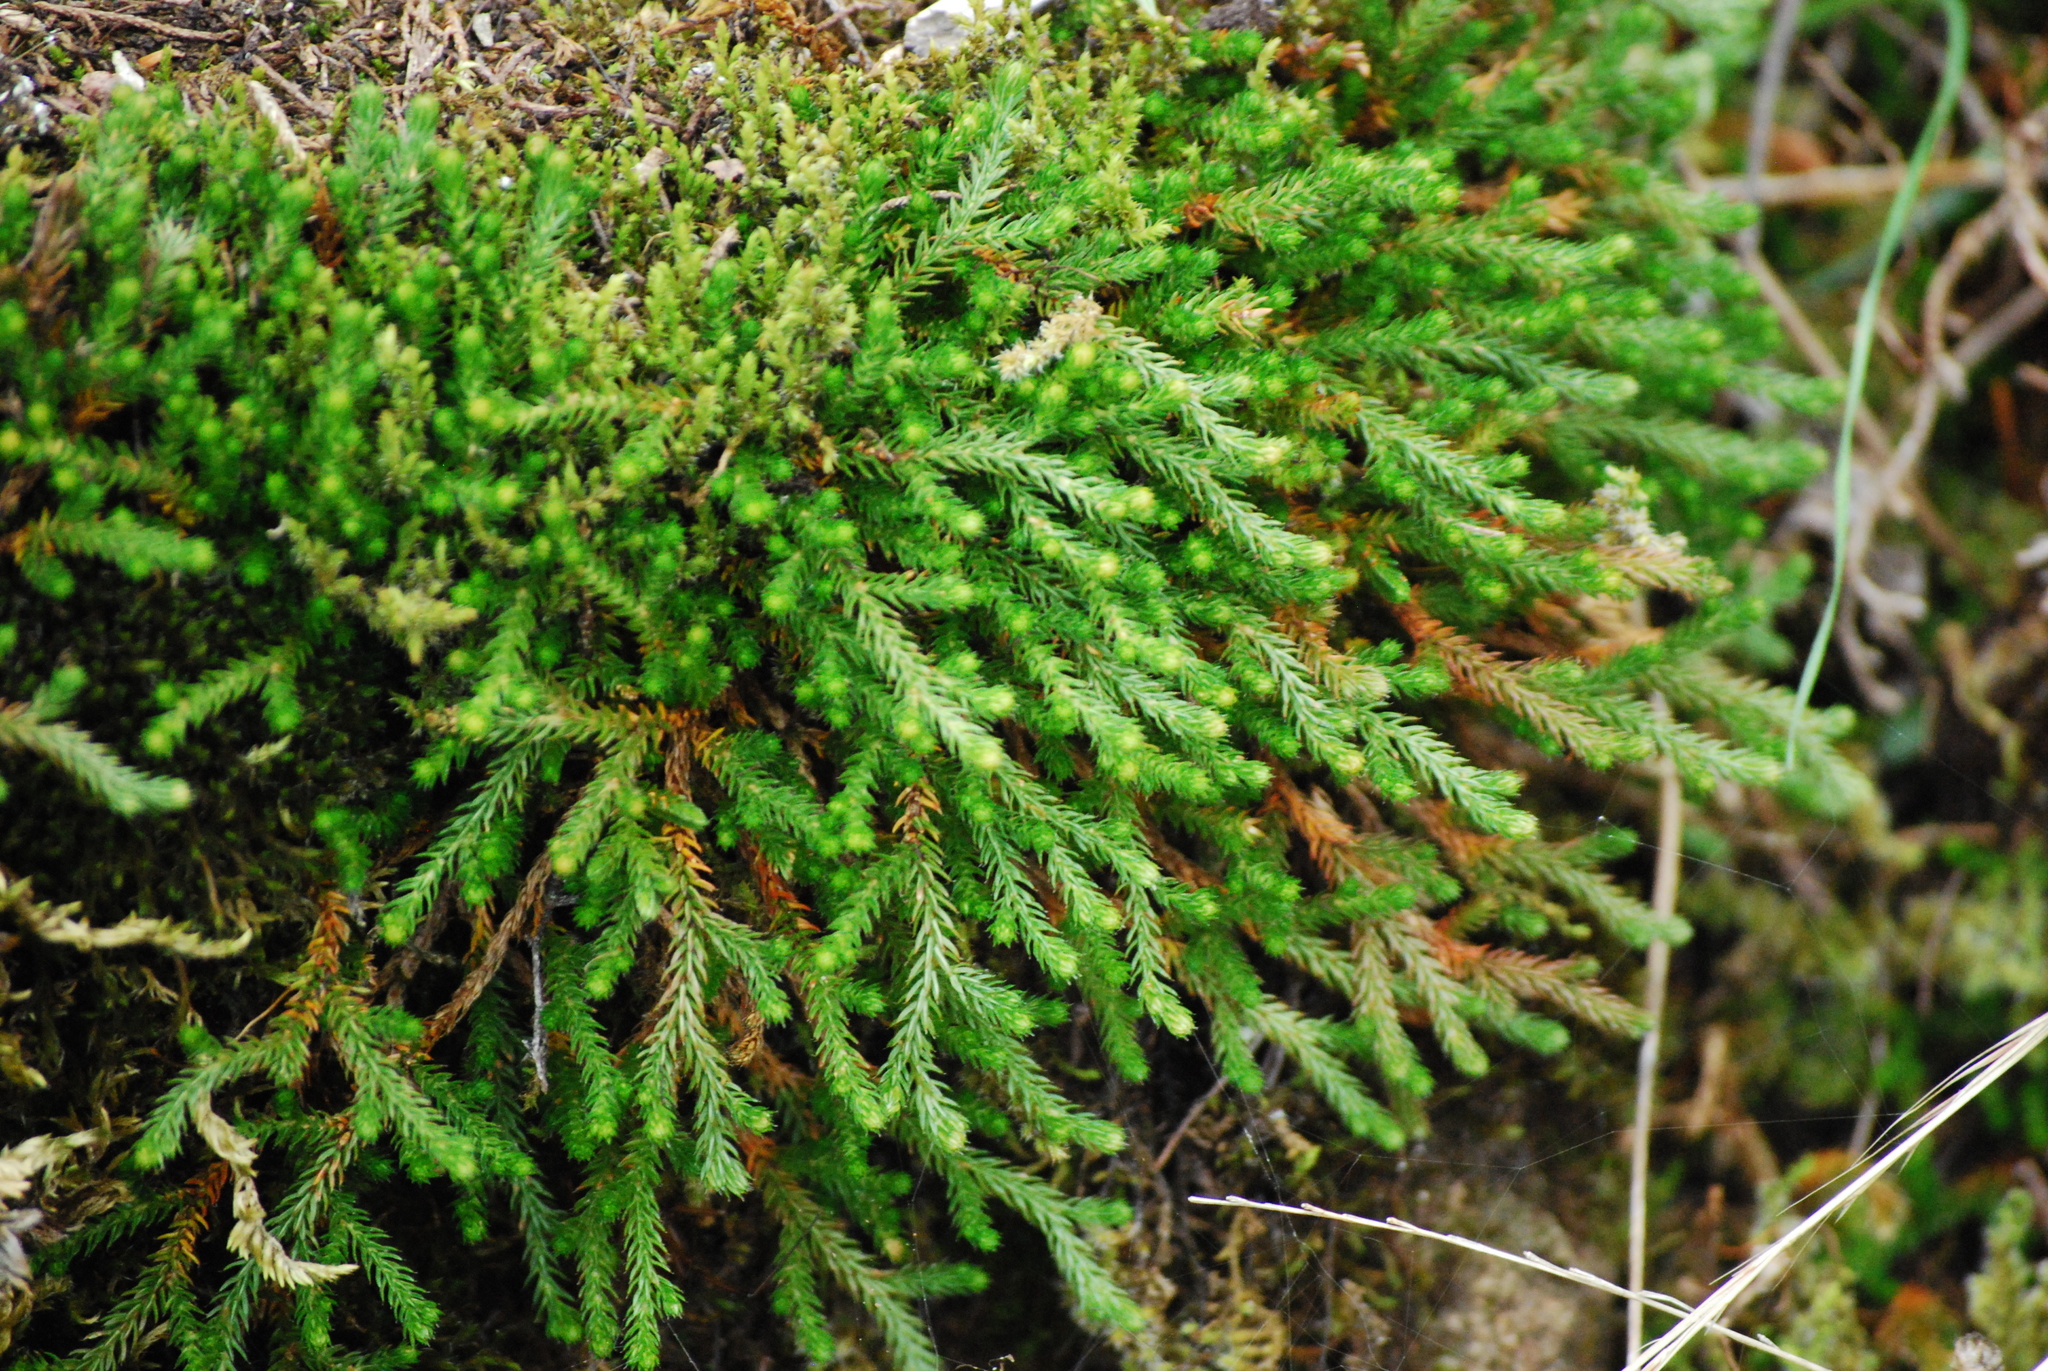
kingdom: Plantae
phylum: Tracheophyta
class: Lycopodiopsida
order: Selaginellales
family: Selaginellaceae
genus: Selaginella
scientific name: Selaginella wallacei
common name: Wallace's selaginella
